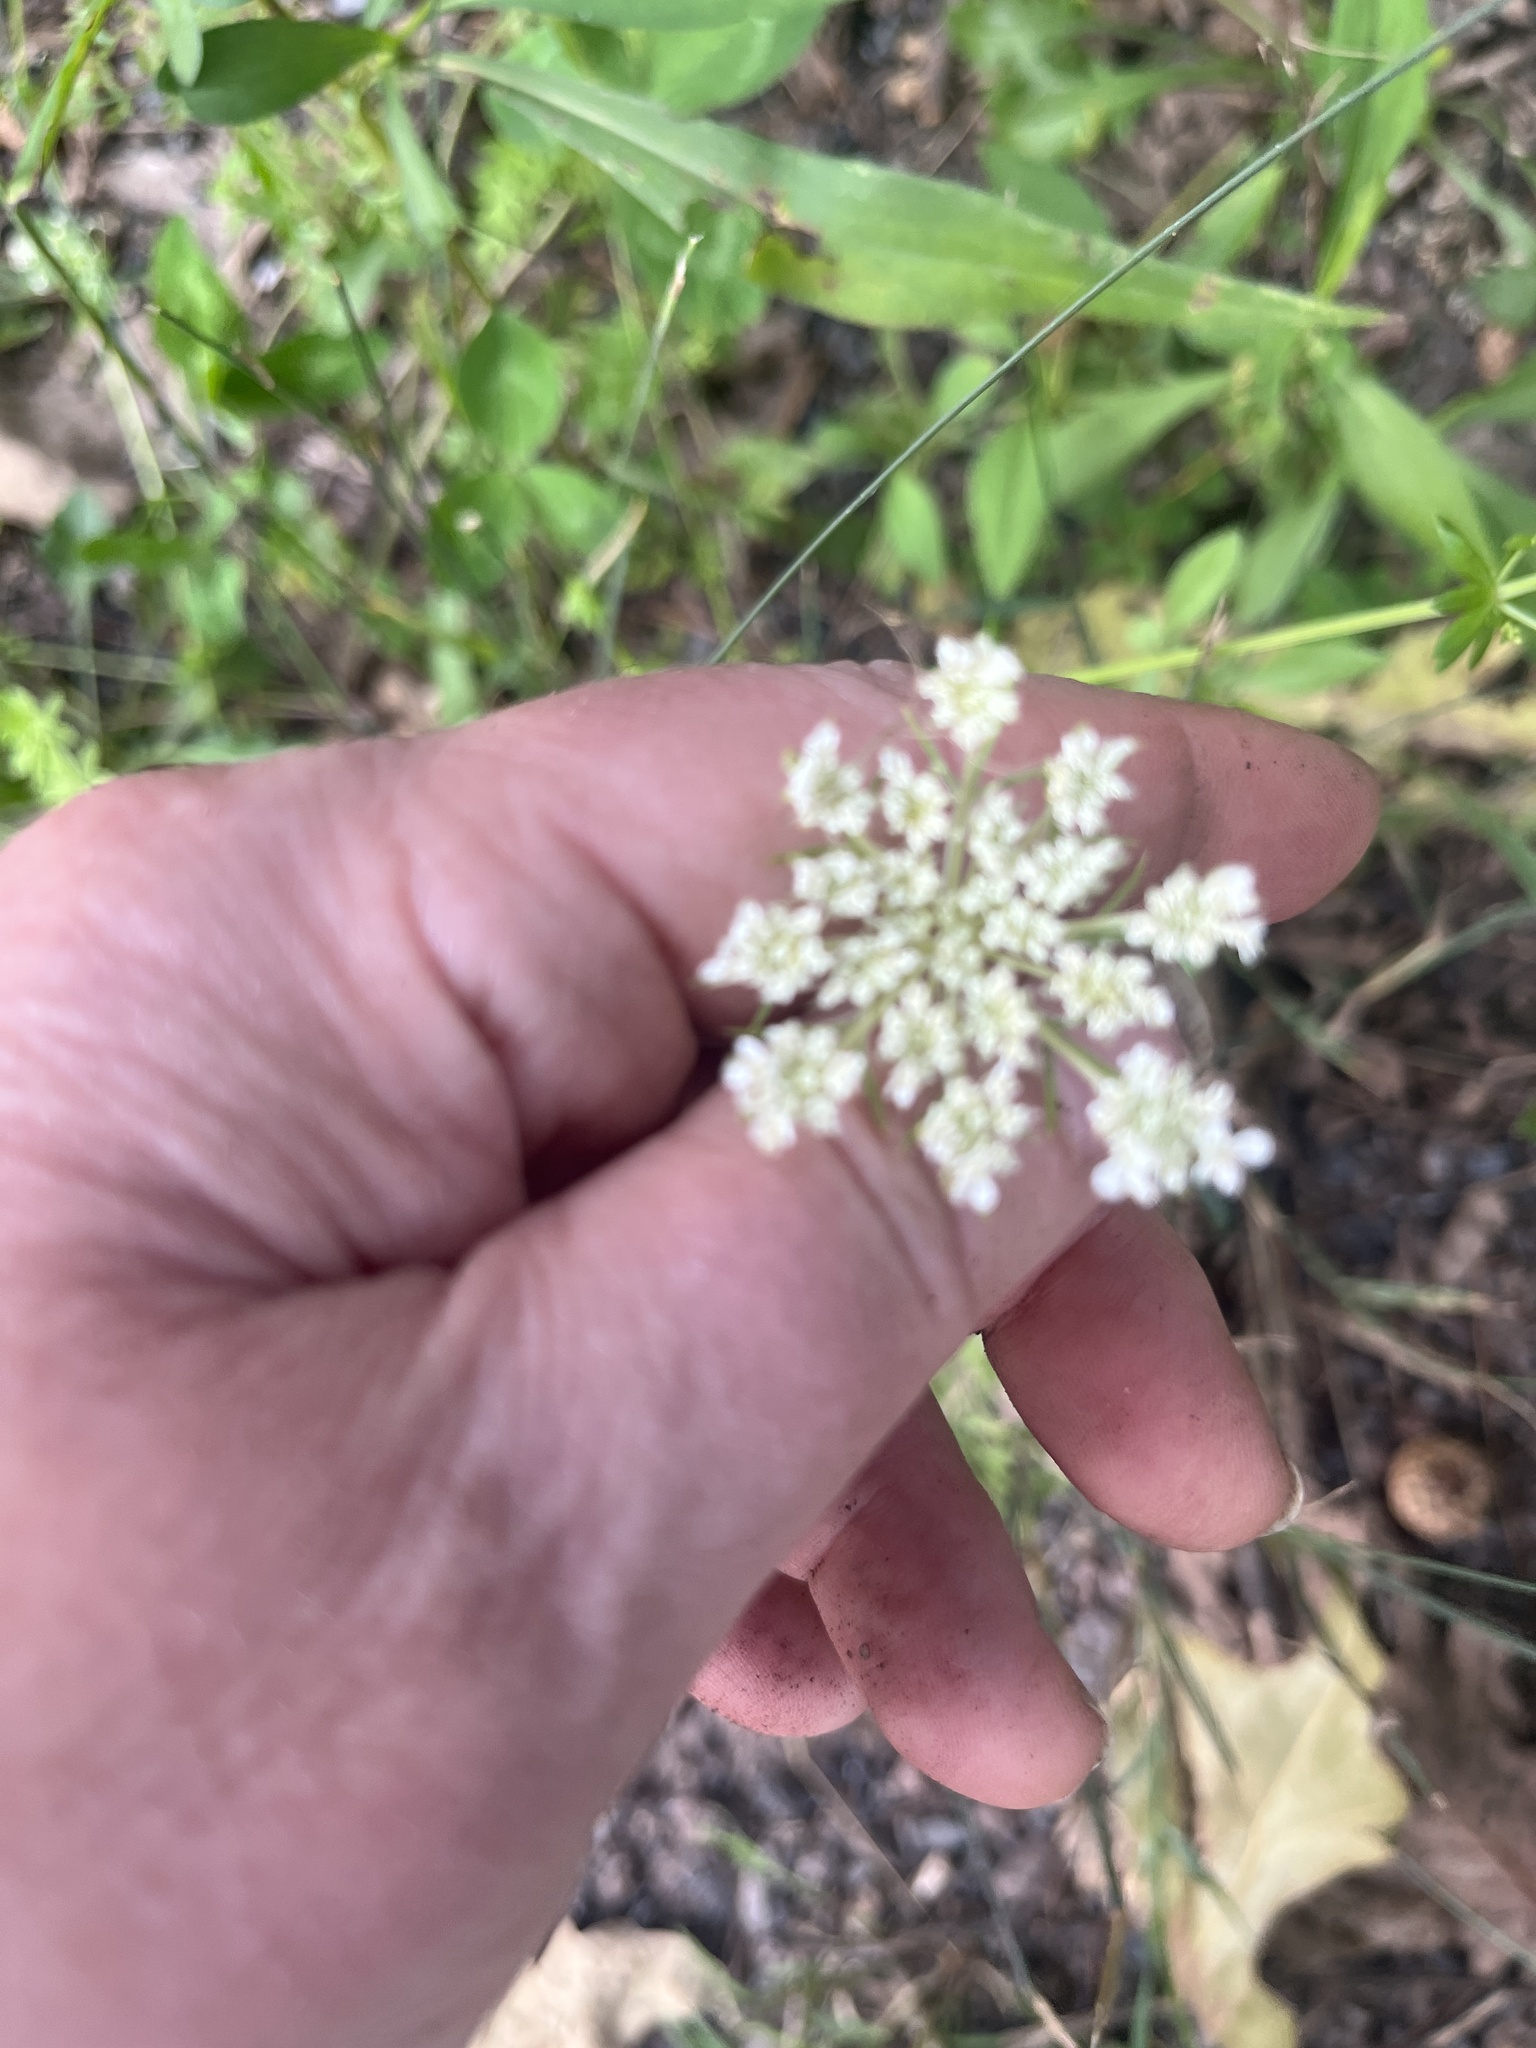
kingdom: Plantae
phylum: Tracheophyta
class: Magnoliopsida
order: Apiales
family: Apiaceae
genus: Daucus
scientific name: Daucus carota
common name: Wild carrot
